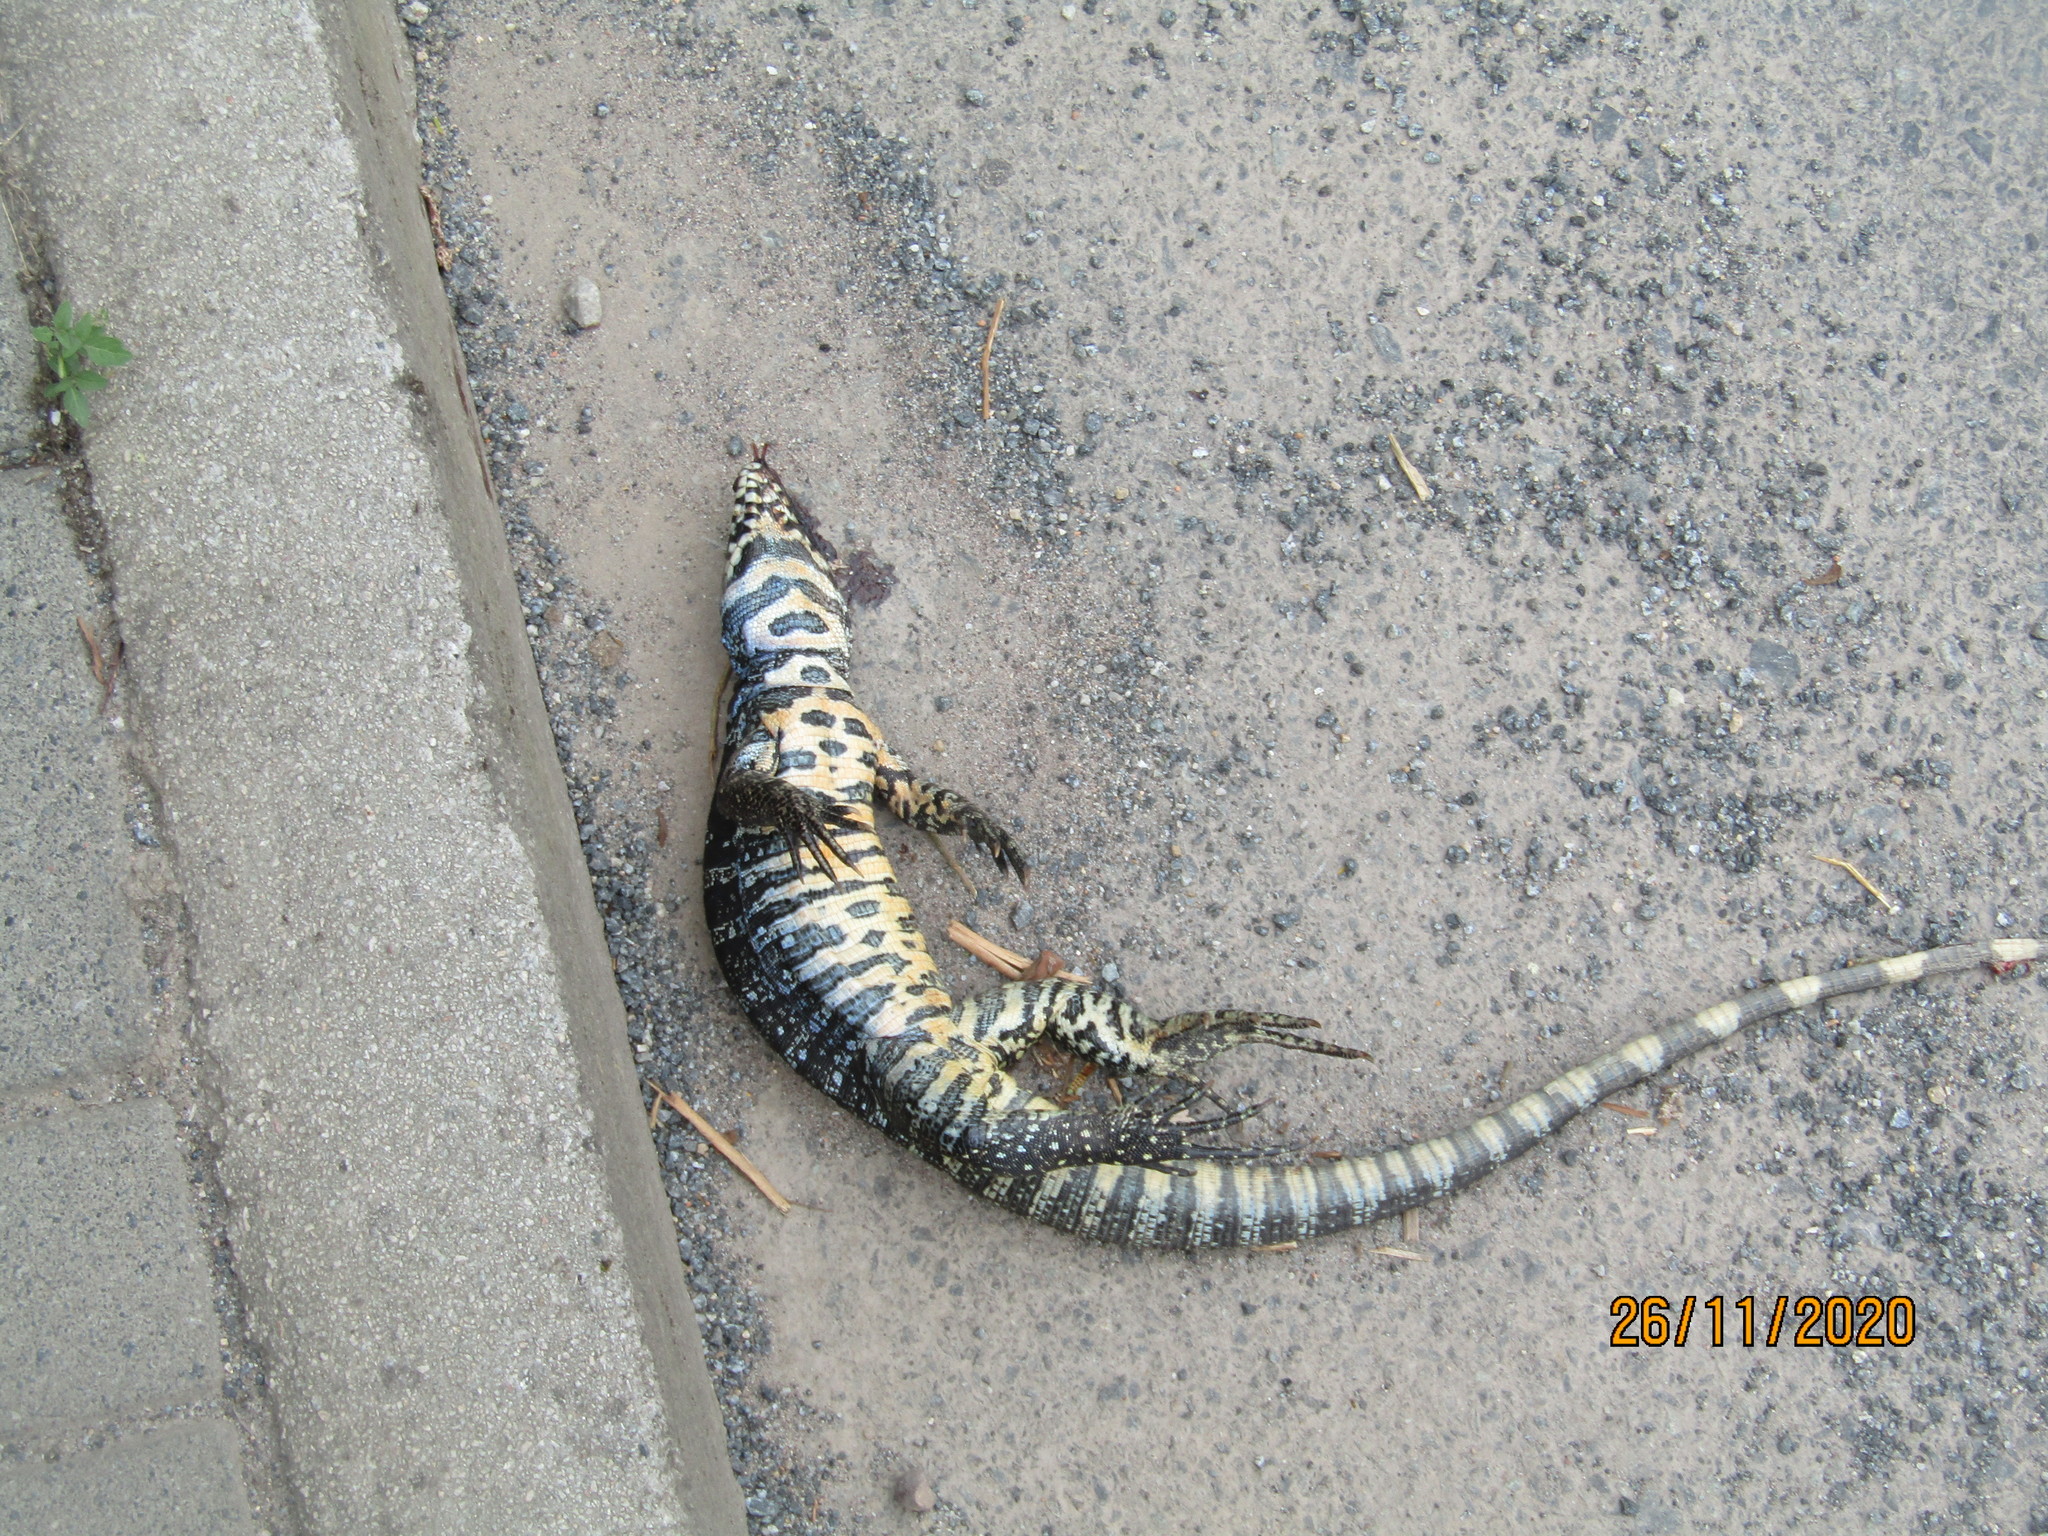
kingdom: Animalia
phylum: Chordata
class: Squamata
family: Teiidae
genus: Salvator
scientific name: Salvator merianae
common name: Argentine black and white tegu
